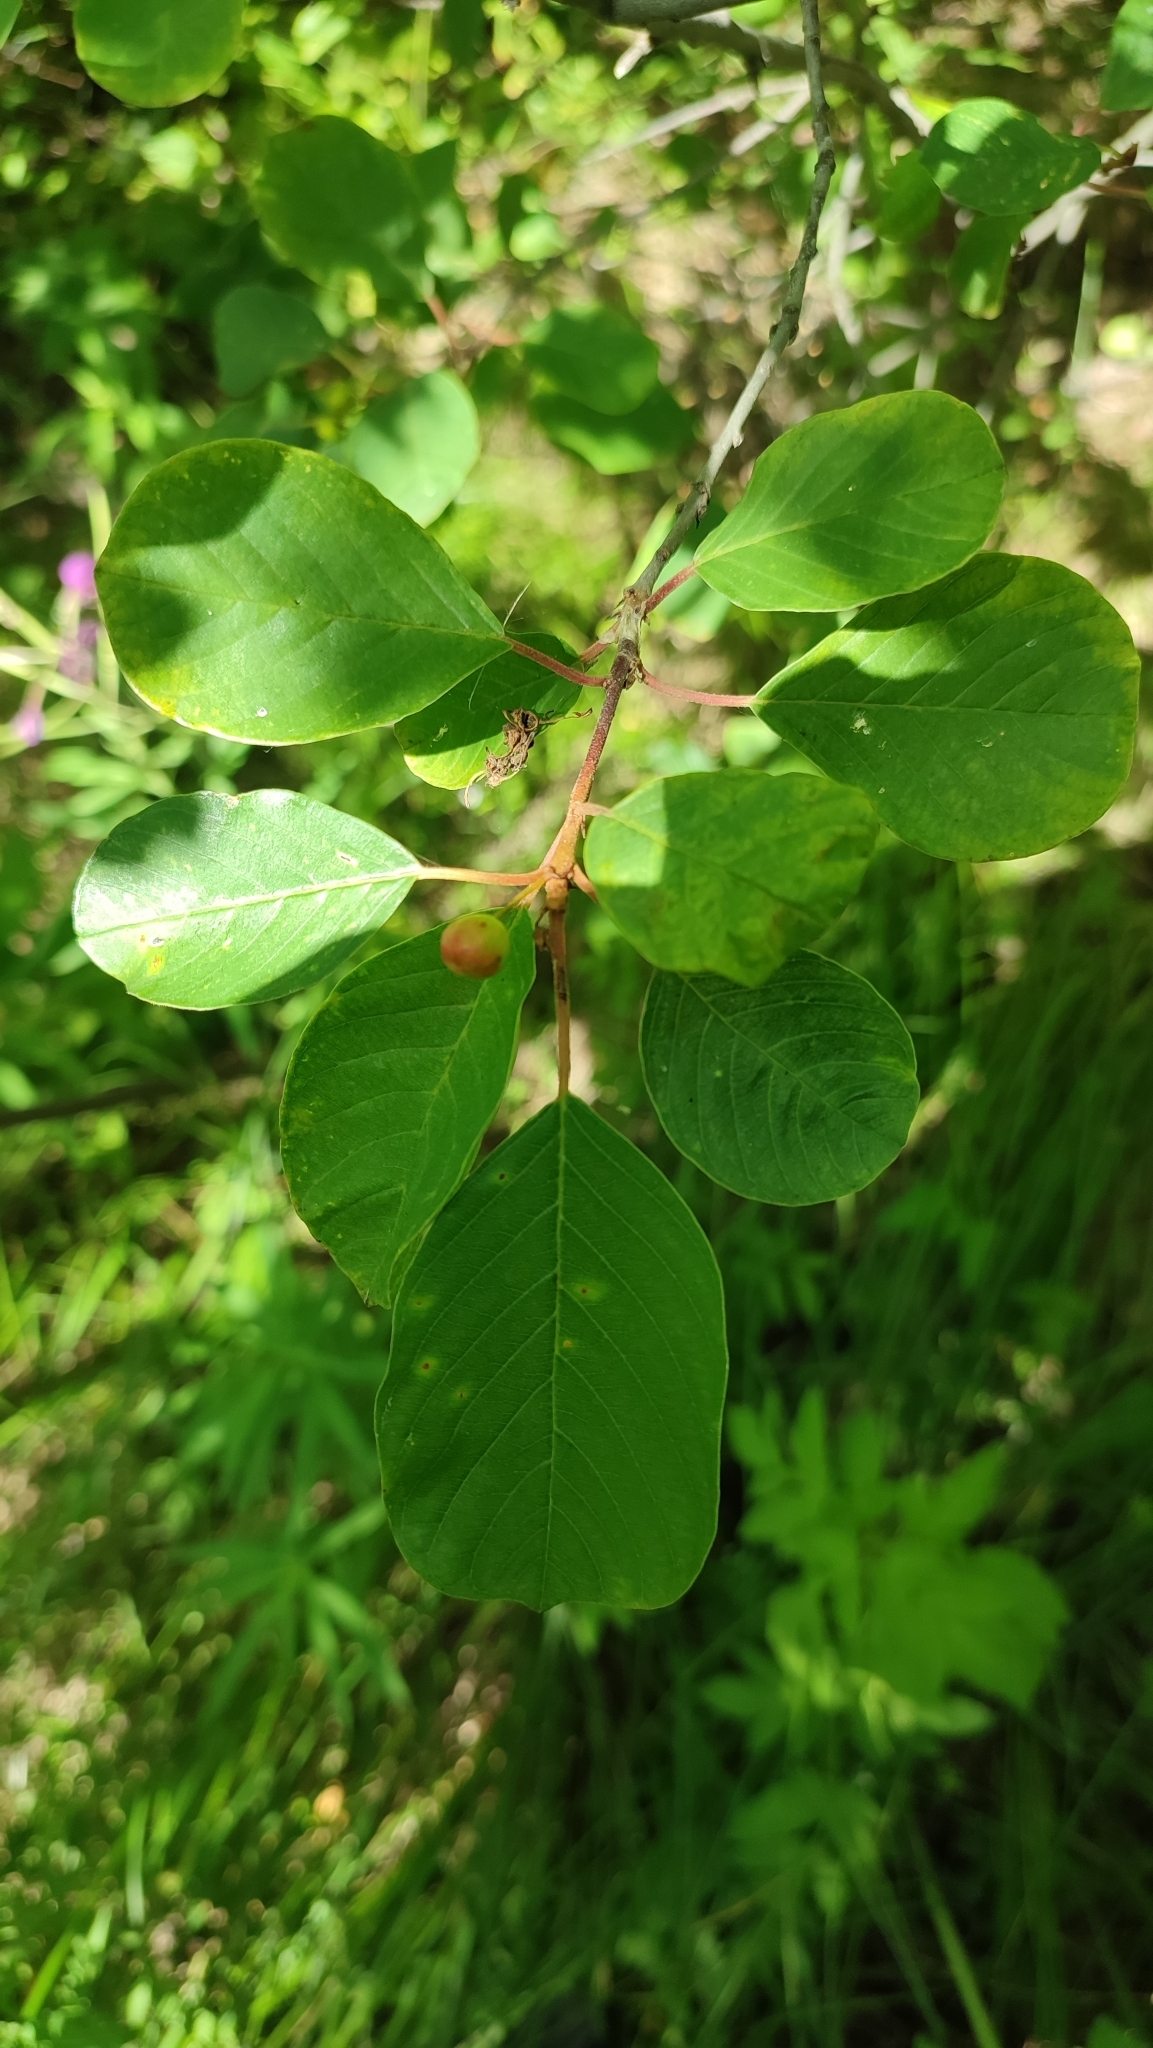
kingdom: Plantae
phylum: Tracheophyta
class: Magnoliopsida
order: Rosales
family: Rhamnaceae
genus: Frangula
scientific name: Frangula alnus
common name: Alder buckthorn
